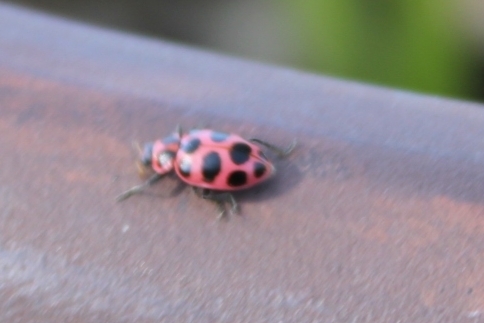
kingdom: Animalia
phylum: Arthropoda
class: Insecta
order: Coleoptera
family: Coccinellidae
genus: Coleomegilla
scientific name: Coleomegilla maculata
